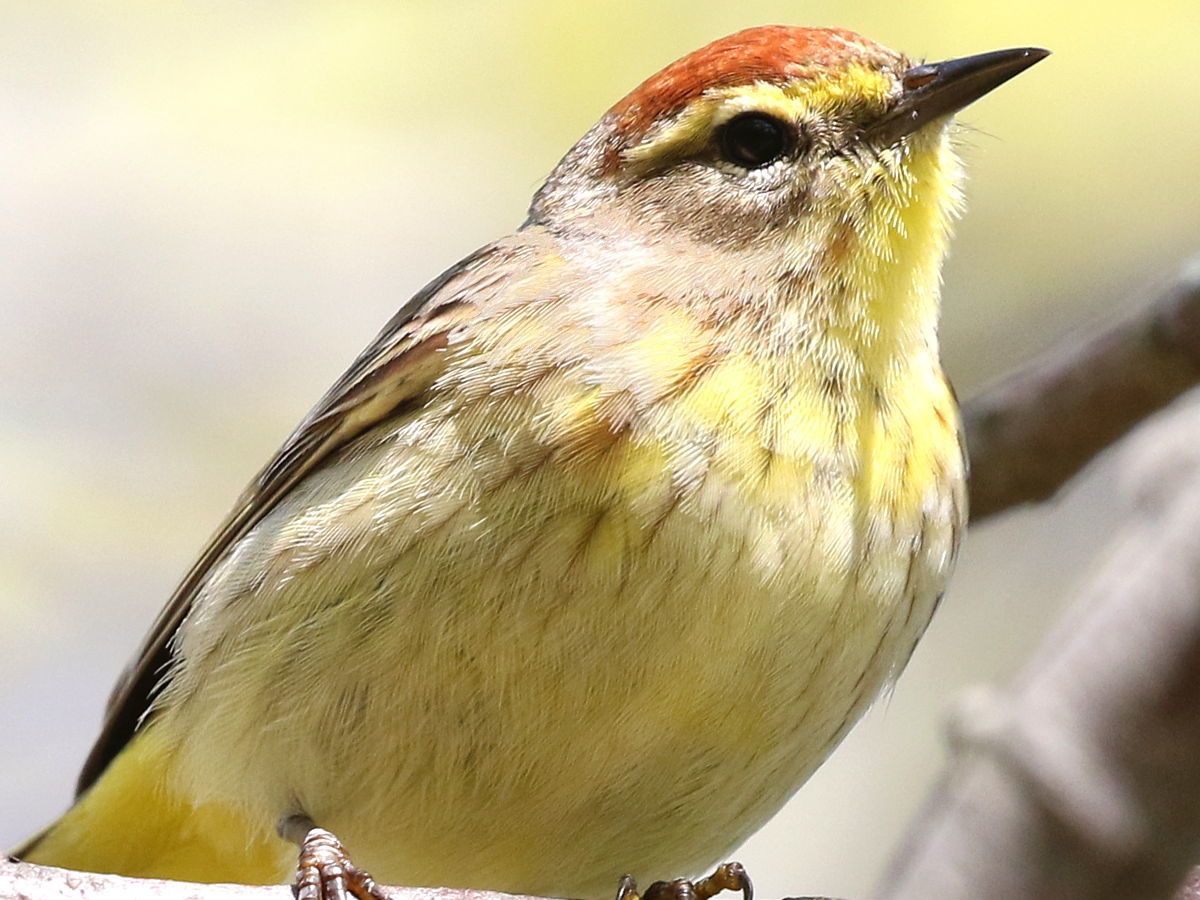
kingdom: Animalia
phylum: Chordata
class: Aves
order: Passeriformes
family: Parulidae
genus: Setophaga
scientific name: Setophaga palmarum
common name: Palm warbler
